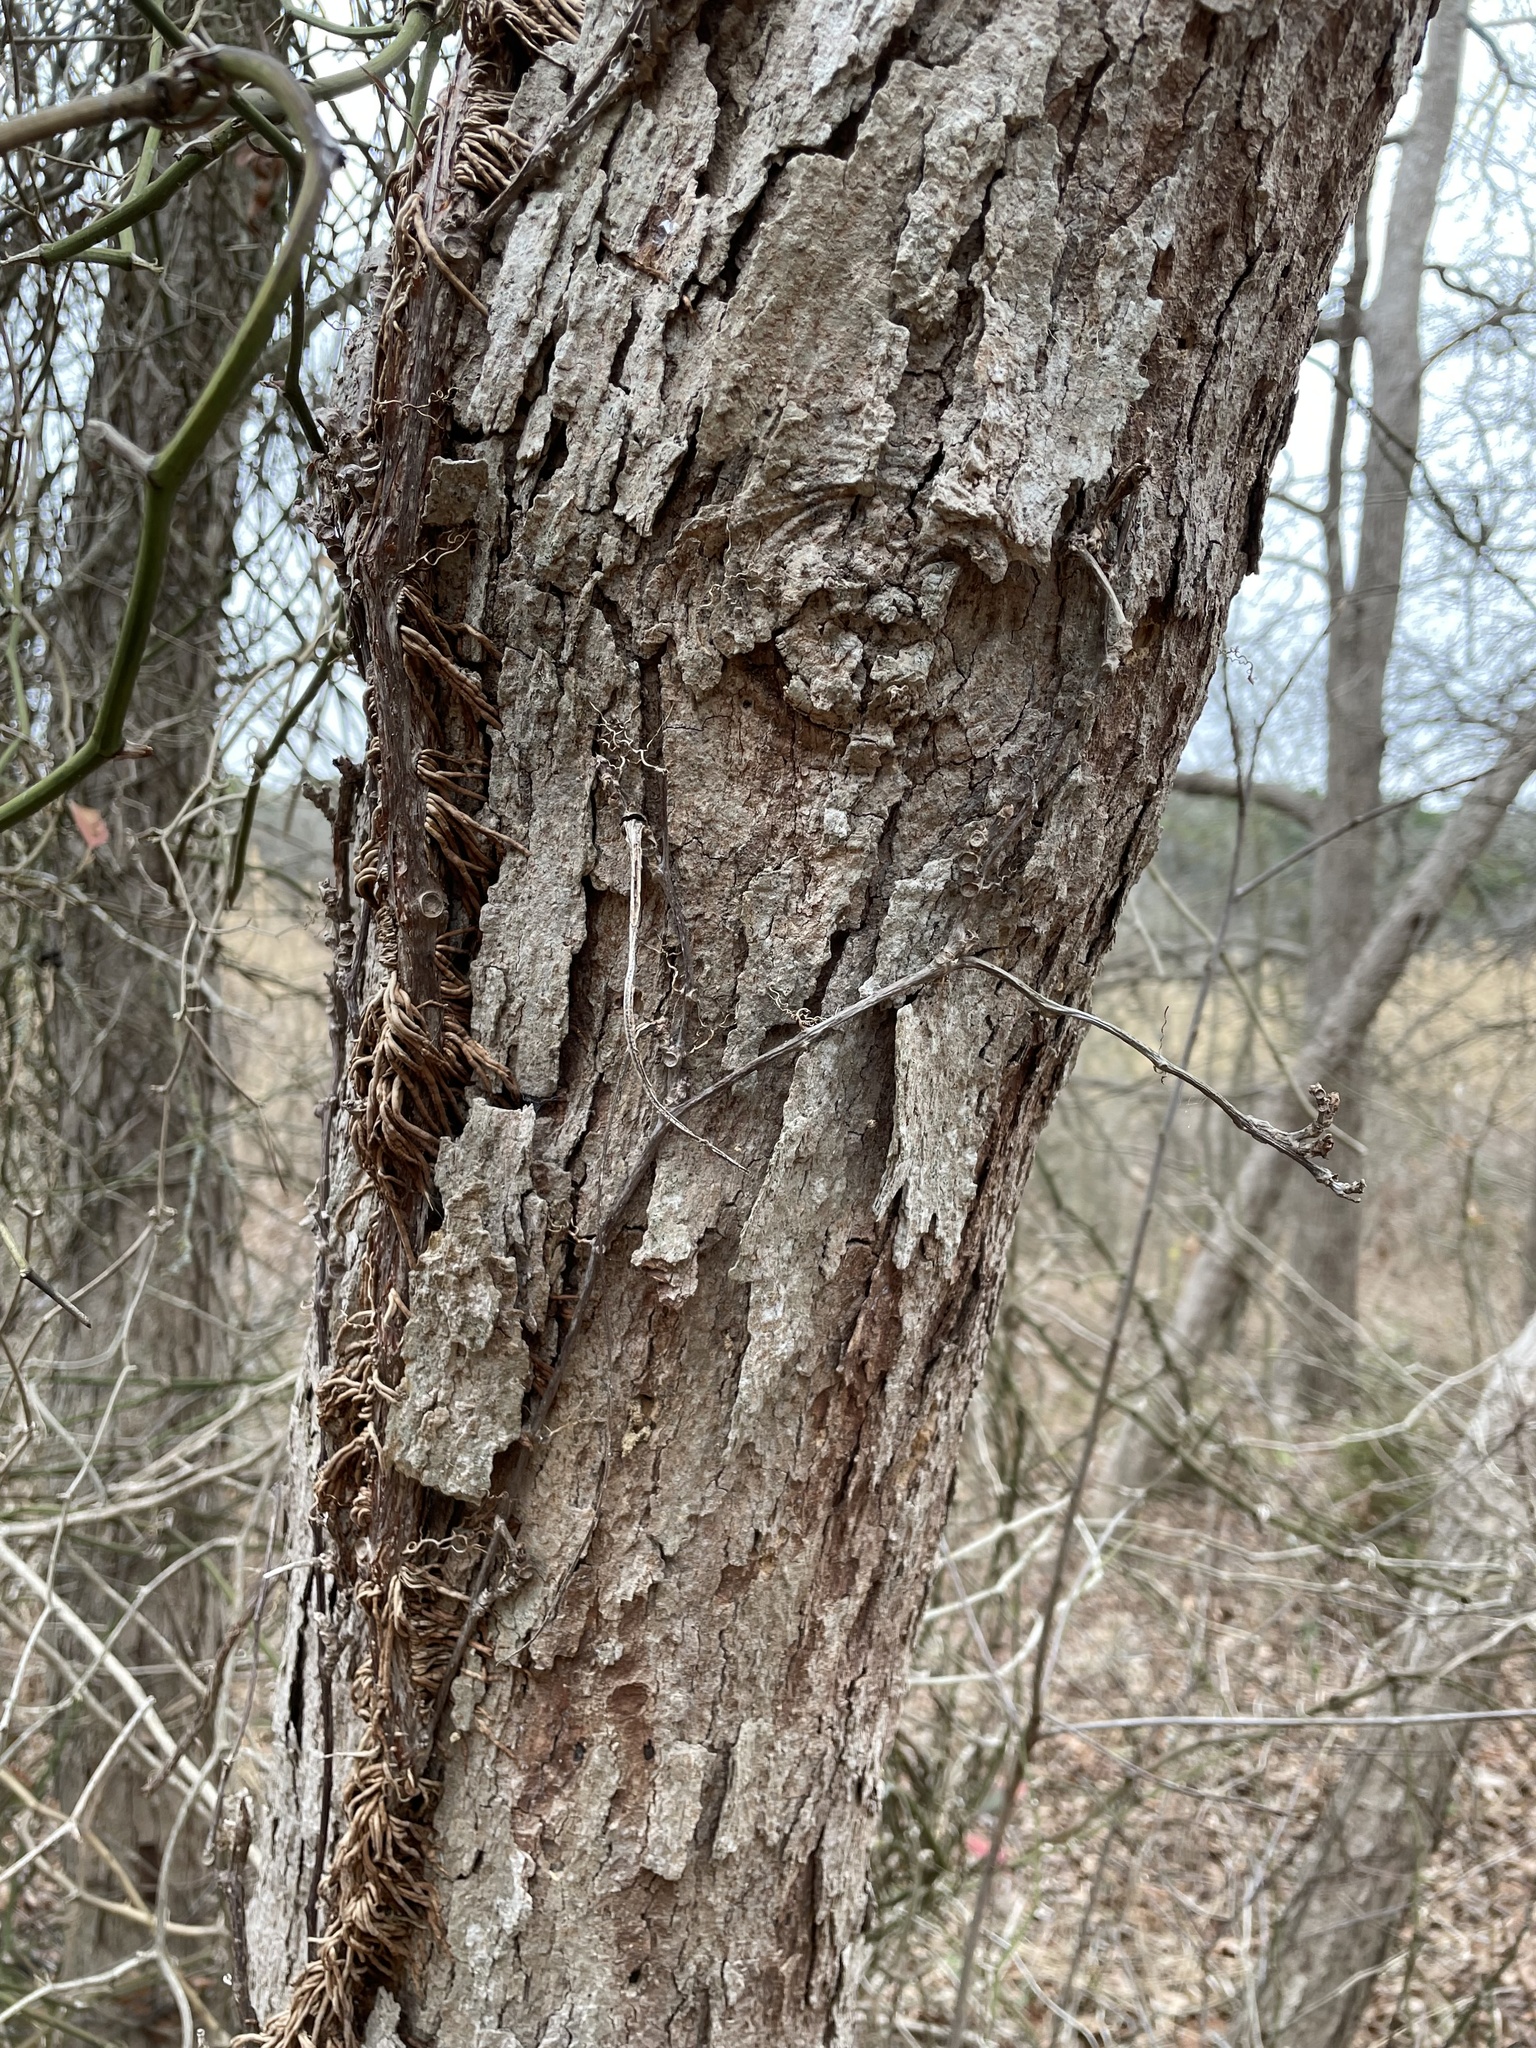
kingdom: Plantae
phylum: Tracheophyta
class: Magnoliopsida
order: Sapindales
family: Sapindaceae
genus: Sapindus
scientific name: Sapindus drummondii
